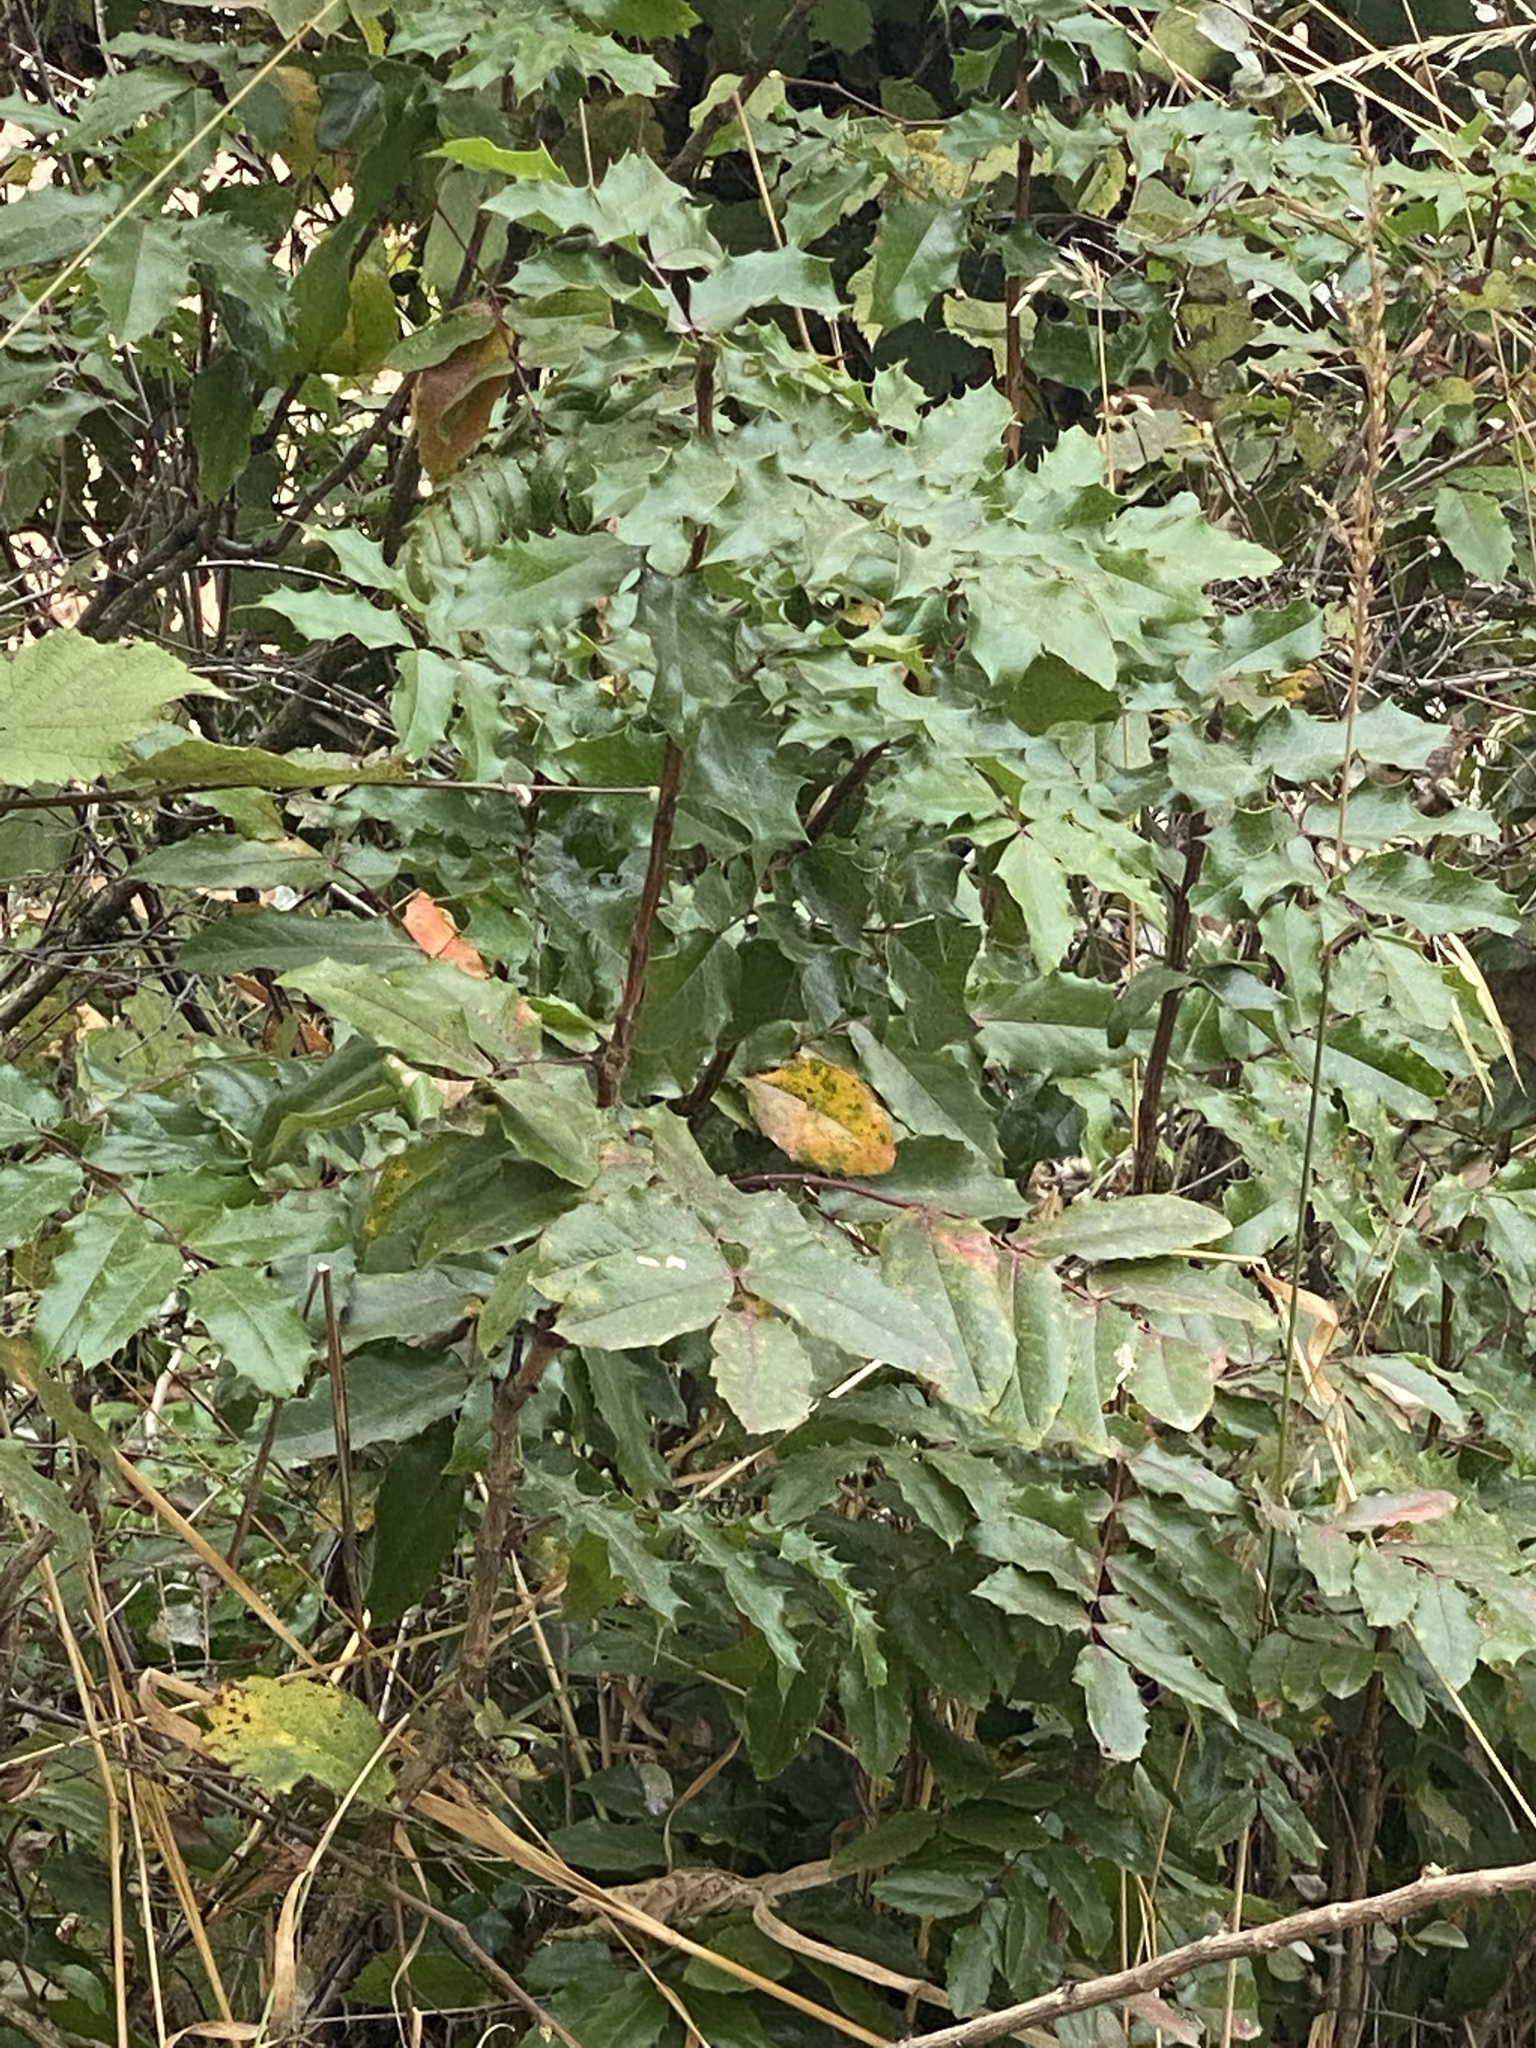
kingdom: Plantae
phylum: Tracheophyta
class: Magnoliopsida
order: Ranunculales
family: Berberidaceae
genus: Mahonia
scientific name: Mahonia aquifolium
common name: Oregon-grape
